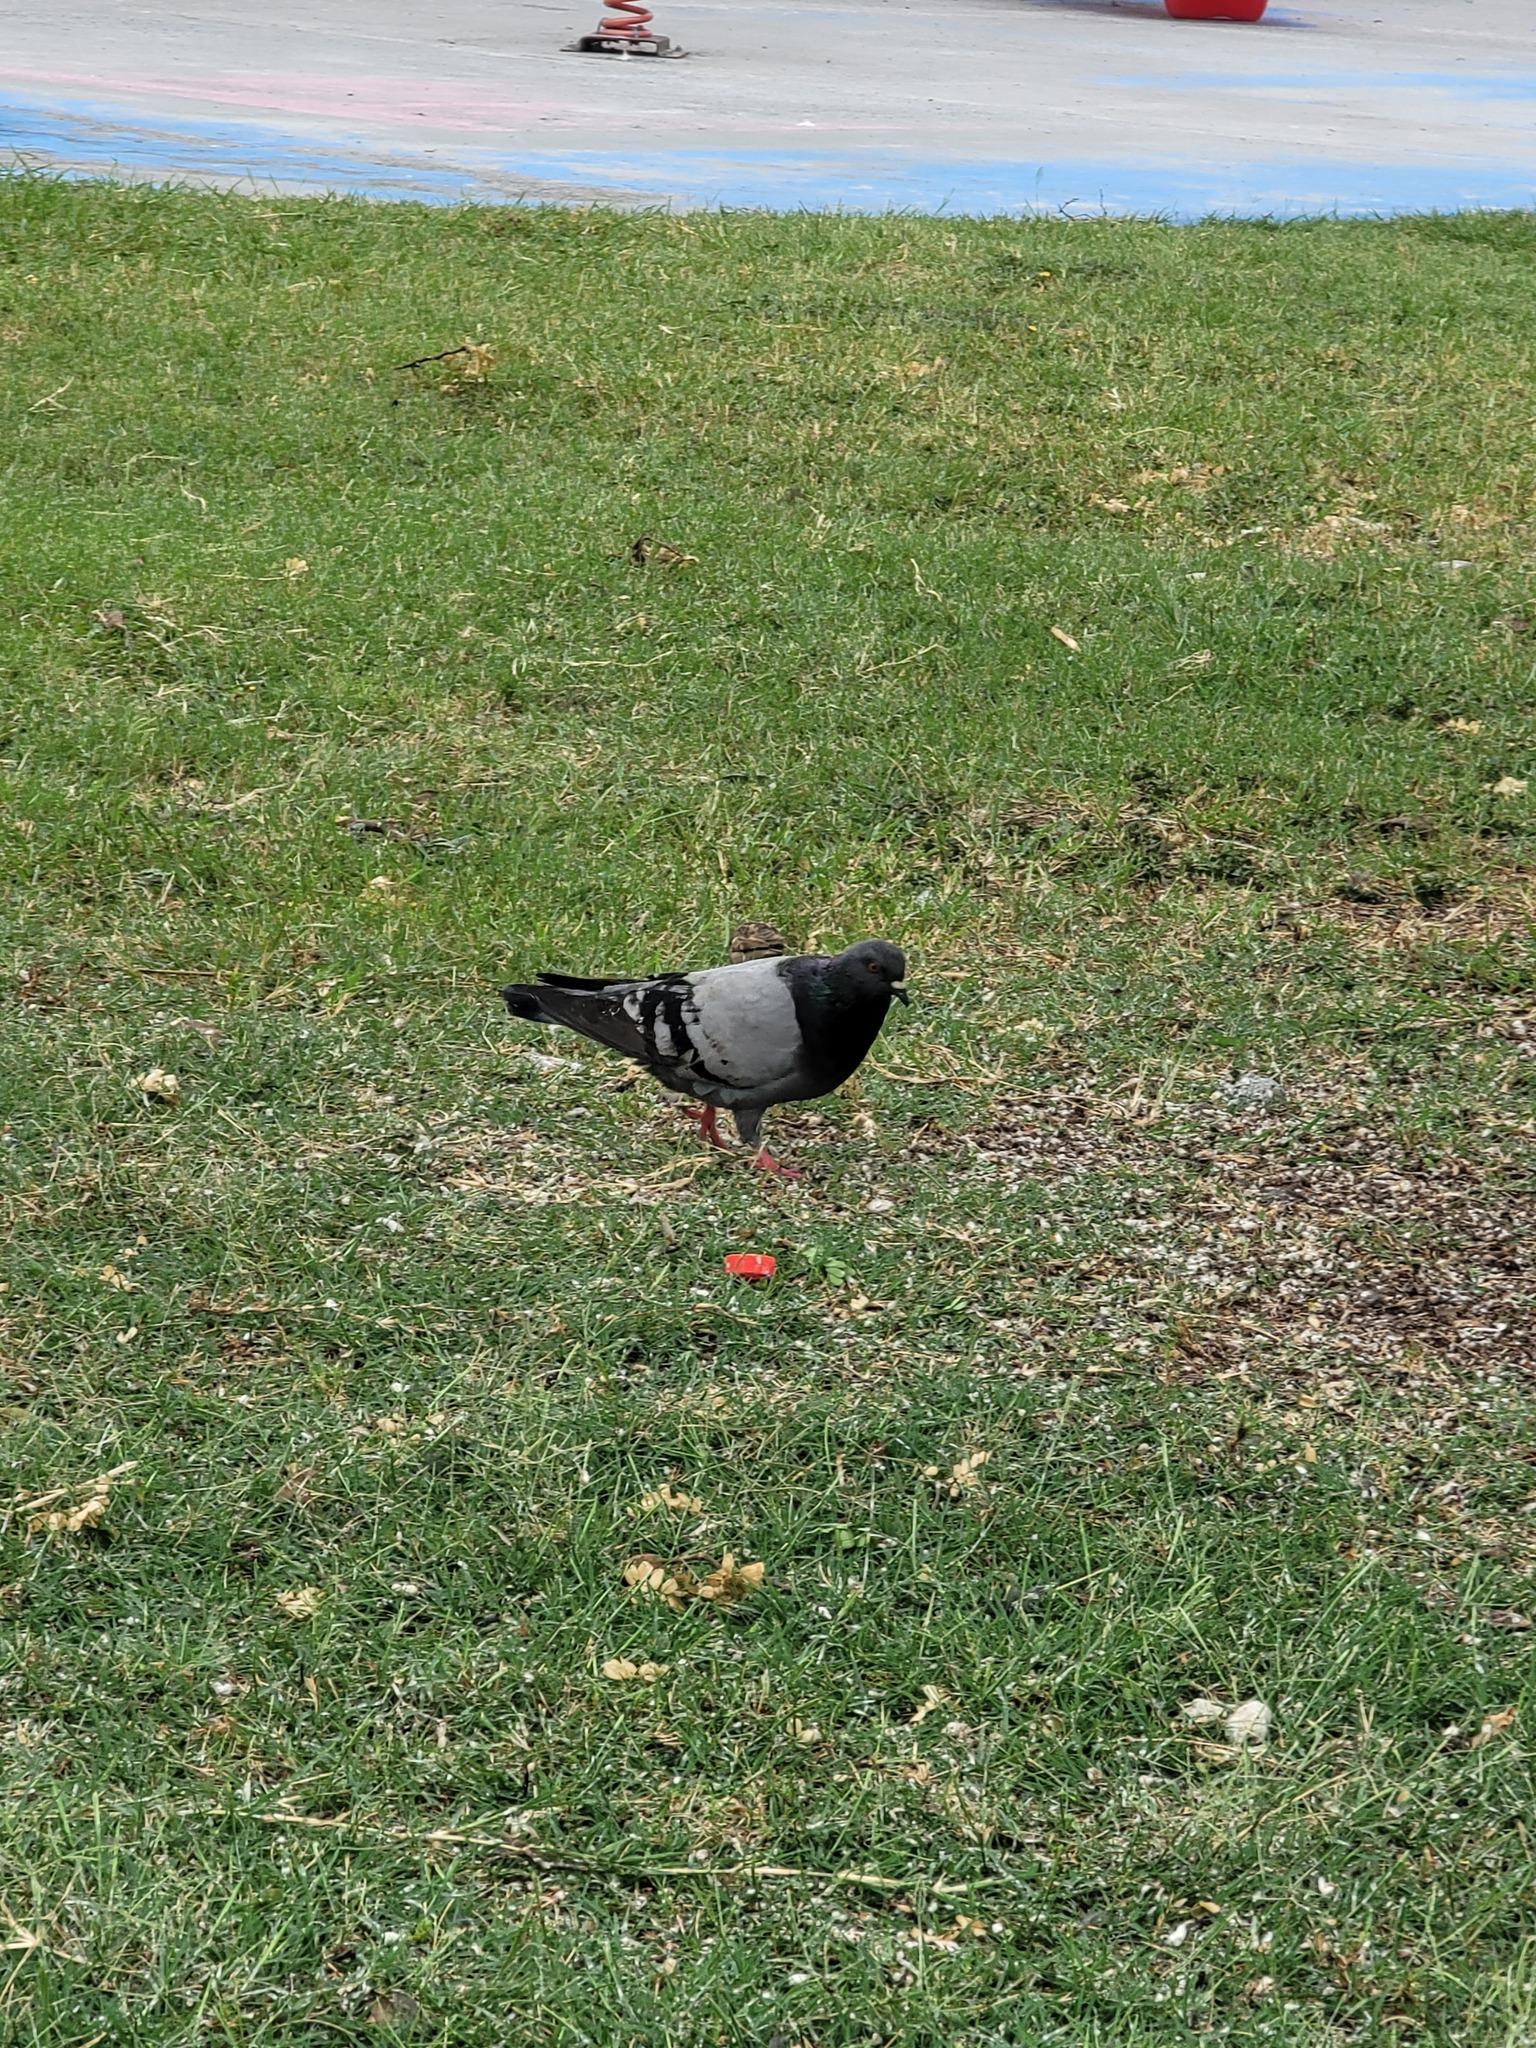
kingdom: Animalia
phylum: Chordata
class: Aves
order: Columbiformes
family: Columbidae
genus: Columba
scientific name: Columba livia
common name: Rock pigeon
